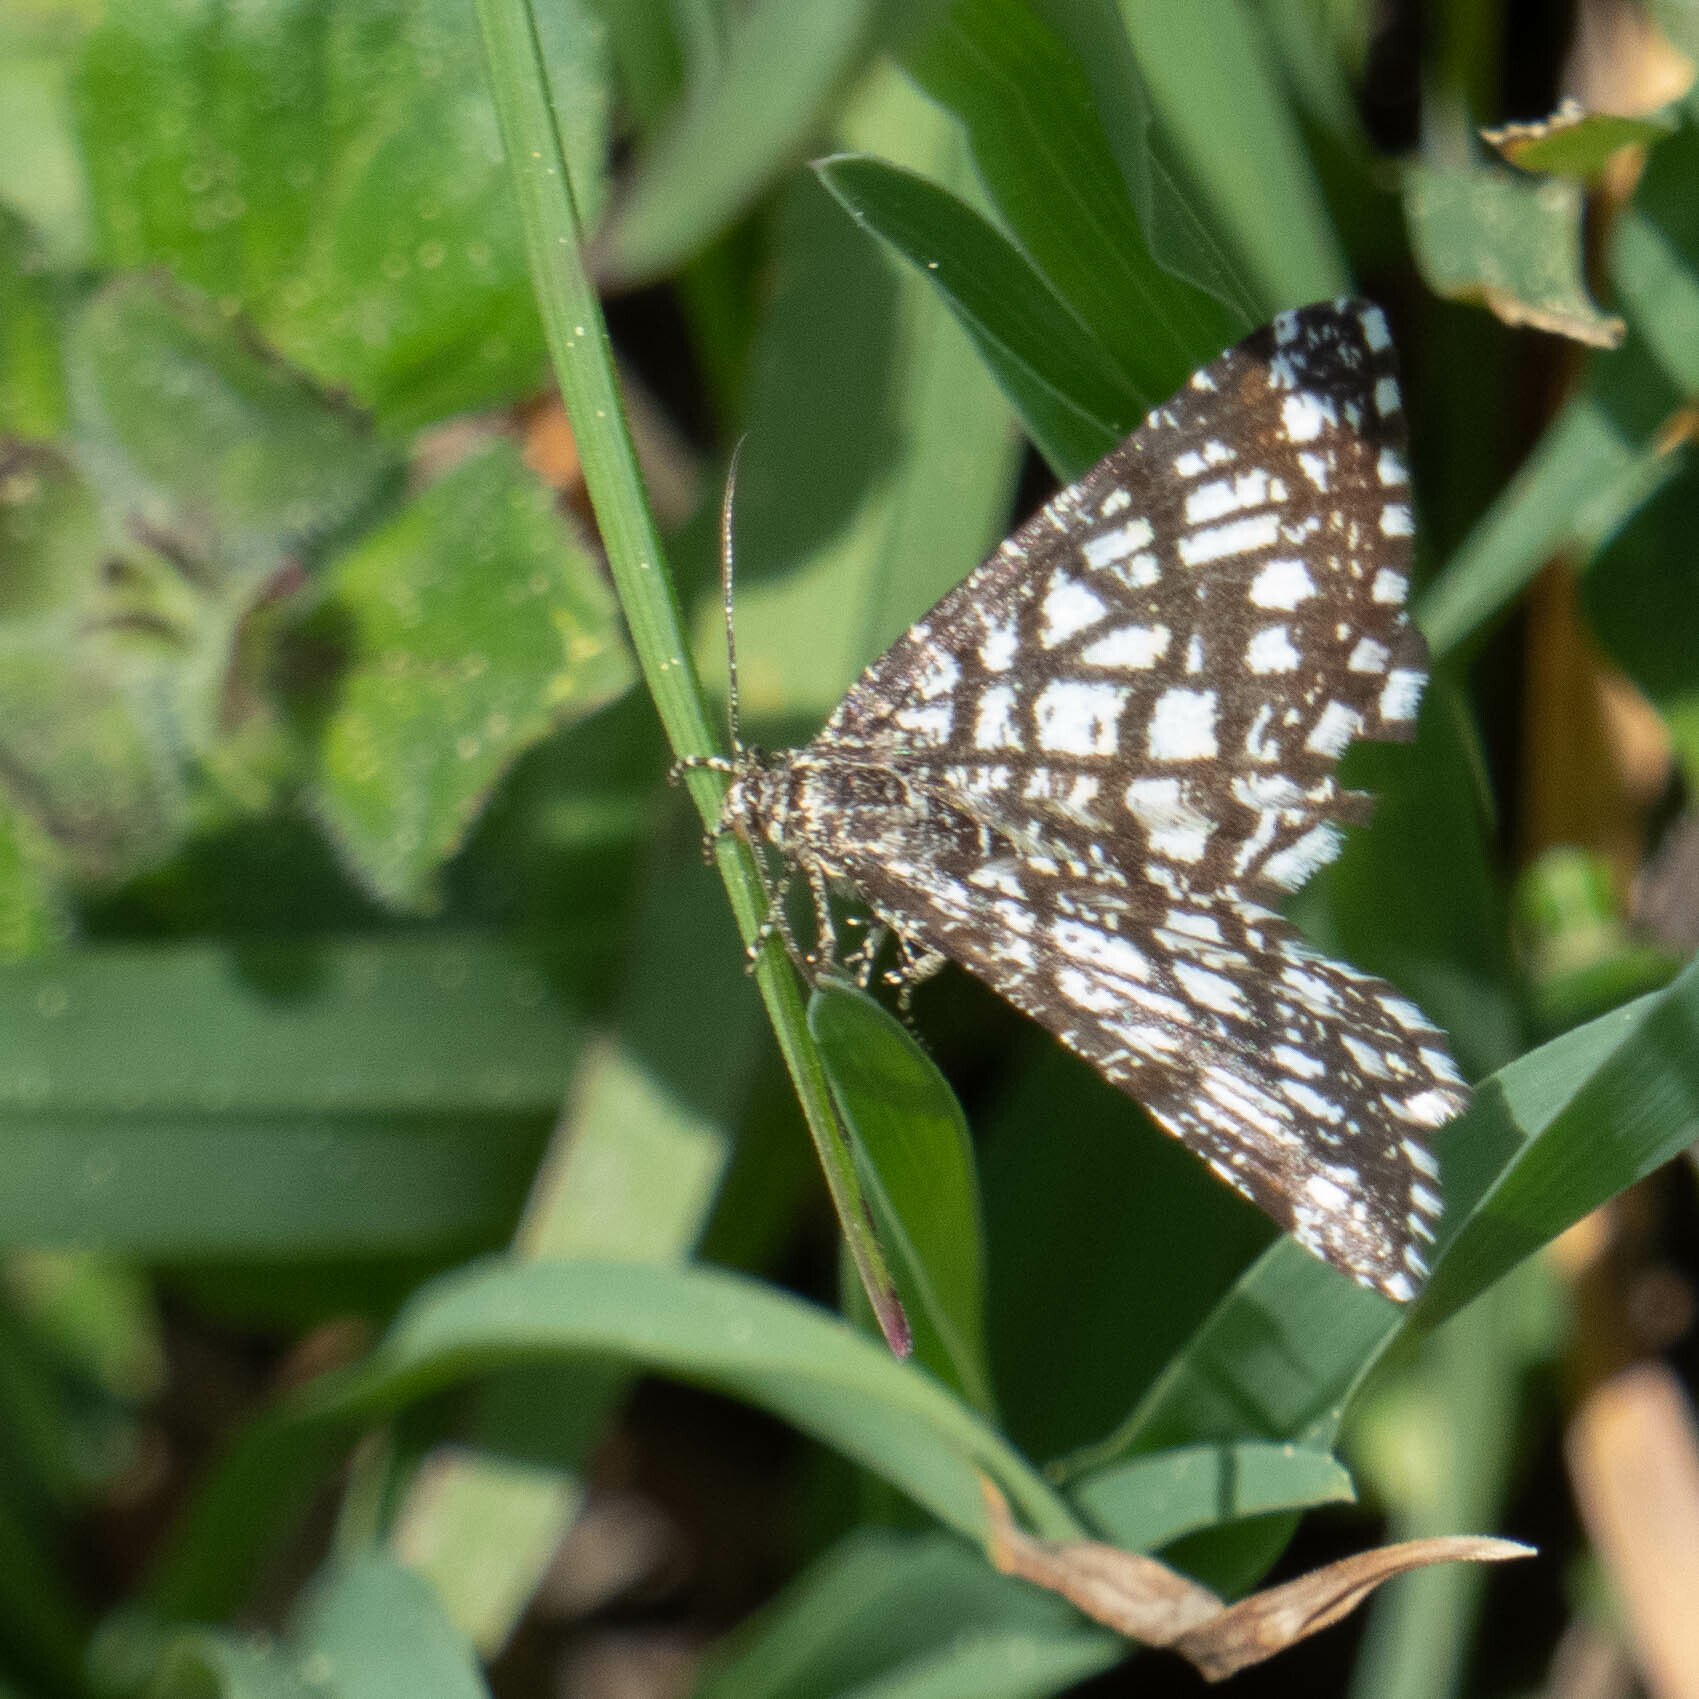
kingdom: Animalia
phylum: Arthropoda
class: Insecta
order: Lepidoptera
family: Geometridae
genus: Chiasmia
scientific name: Chiasmia clathrata
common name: Latticed heath
